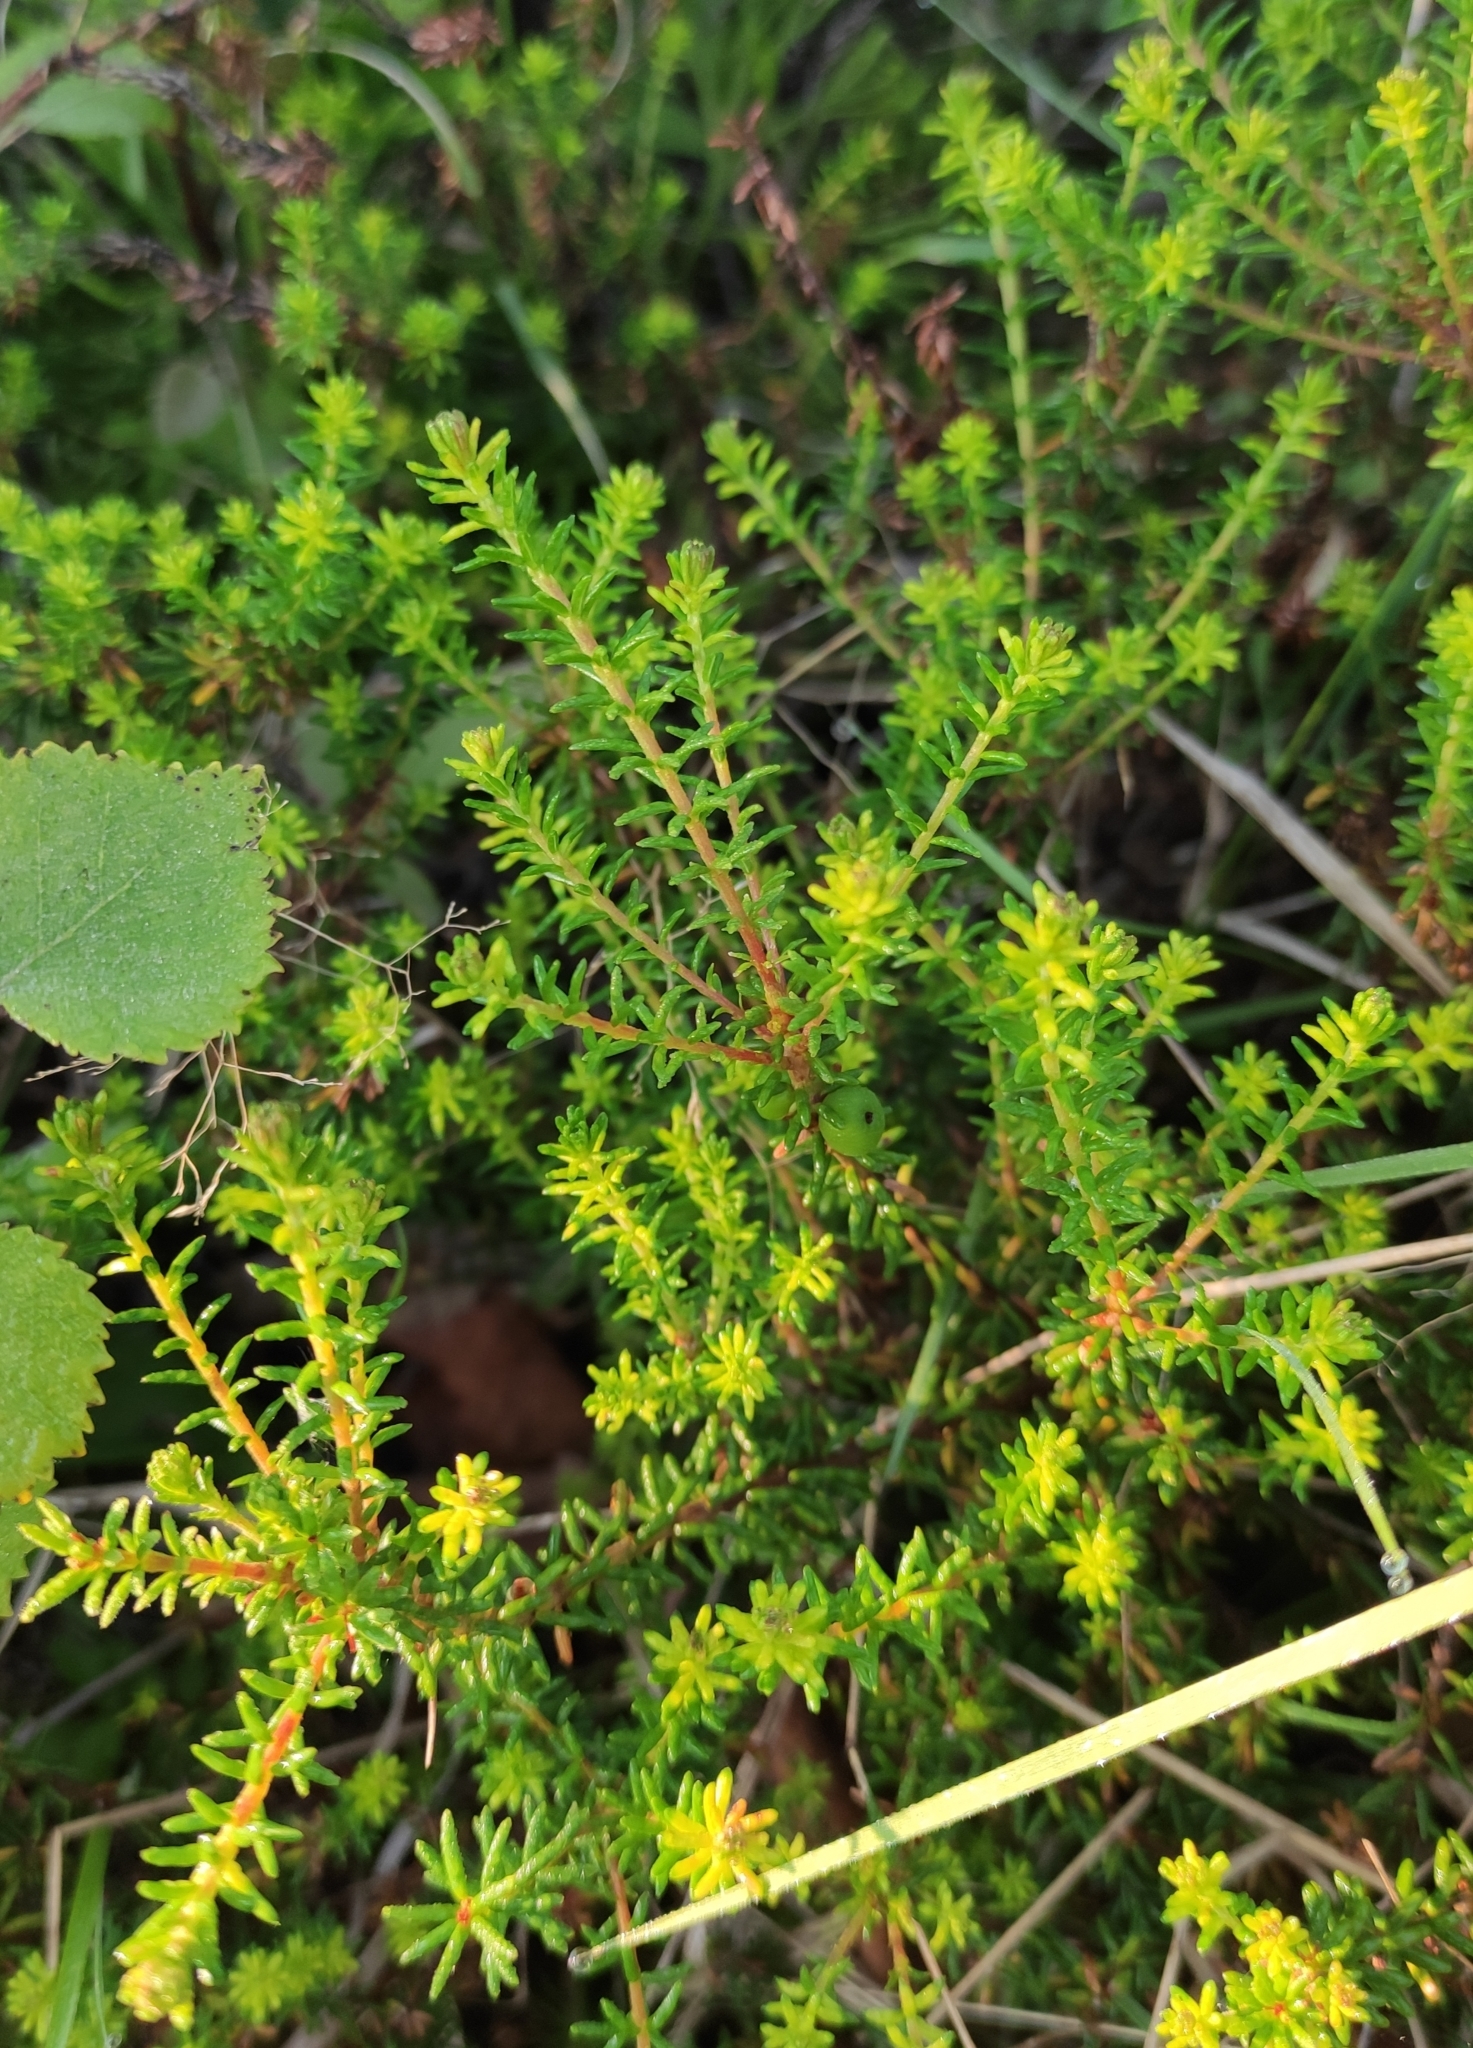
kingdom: Plantae
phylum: Tracheophyta
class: Magnoliopsida
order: Ericales
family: Ericaceae
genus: Empetrum
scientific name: Empetrum nigrum
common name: Black crowberry
